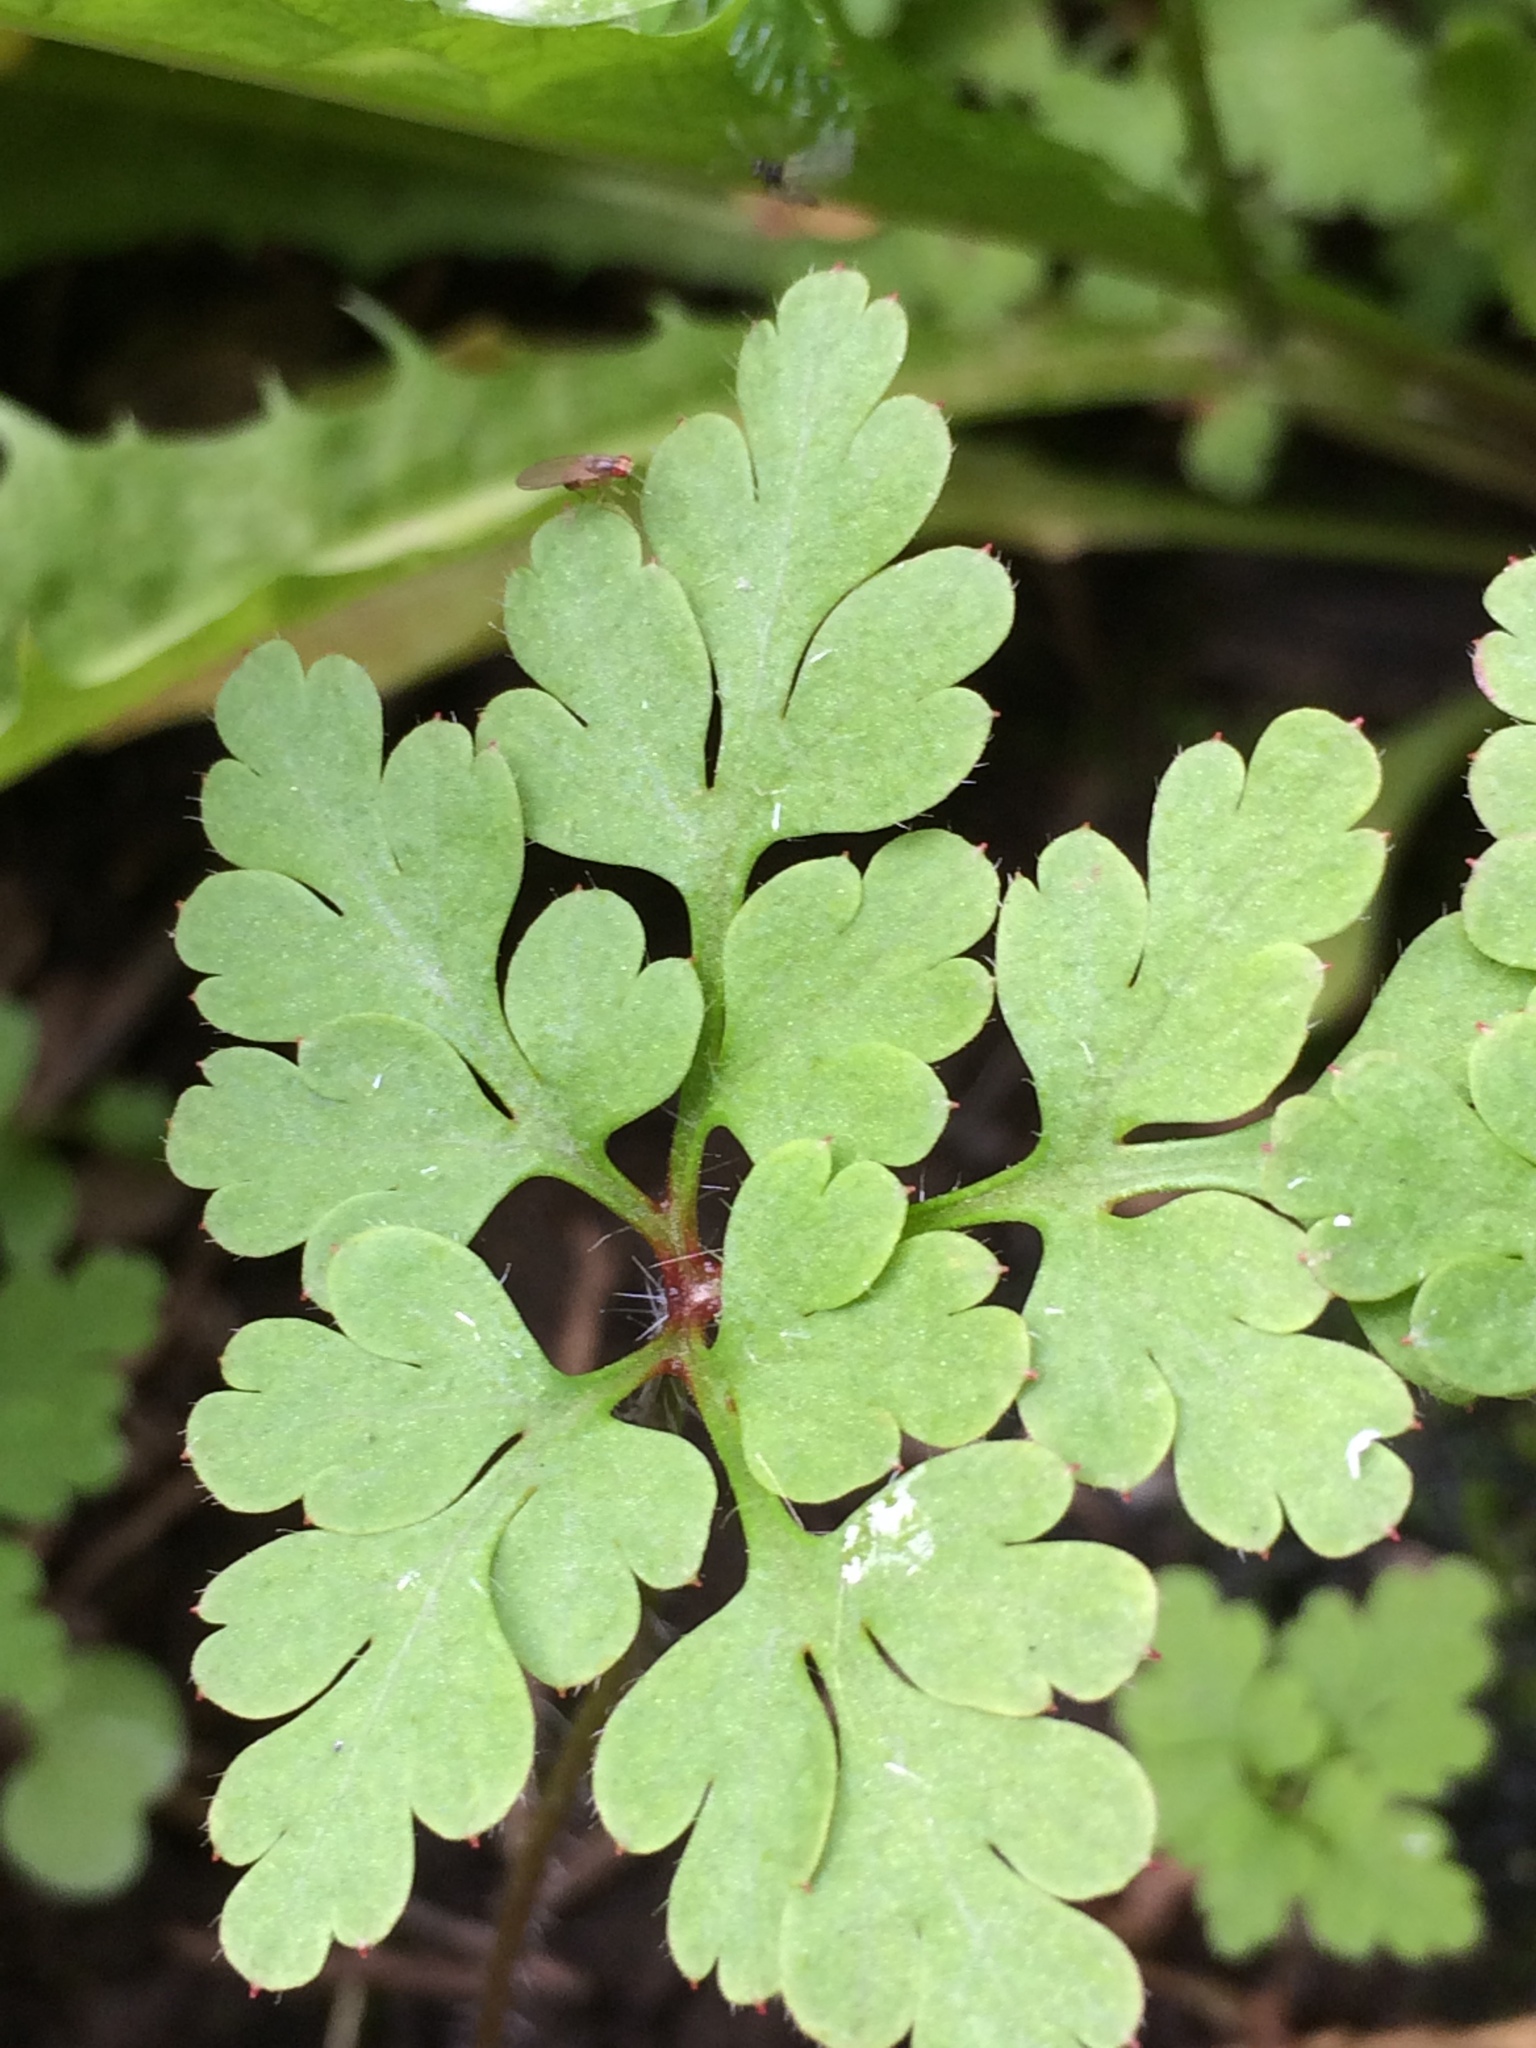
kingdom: Plantae
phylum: Tracheophyta
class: Magnoliopsida
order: Geraniales
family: Geraniaceae
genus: Geranium
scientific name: Geranium robertianum
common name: Herb-robert
